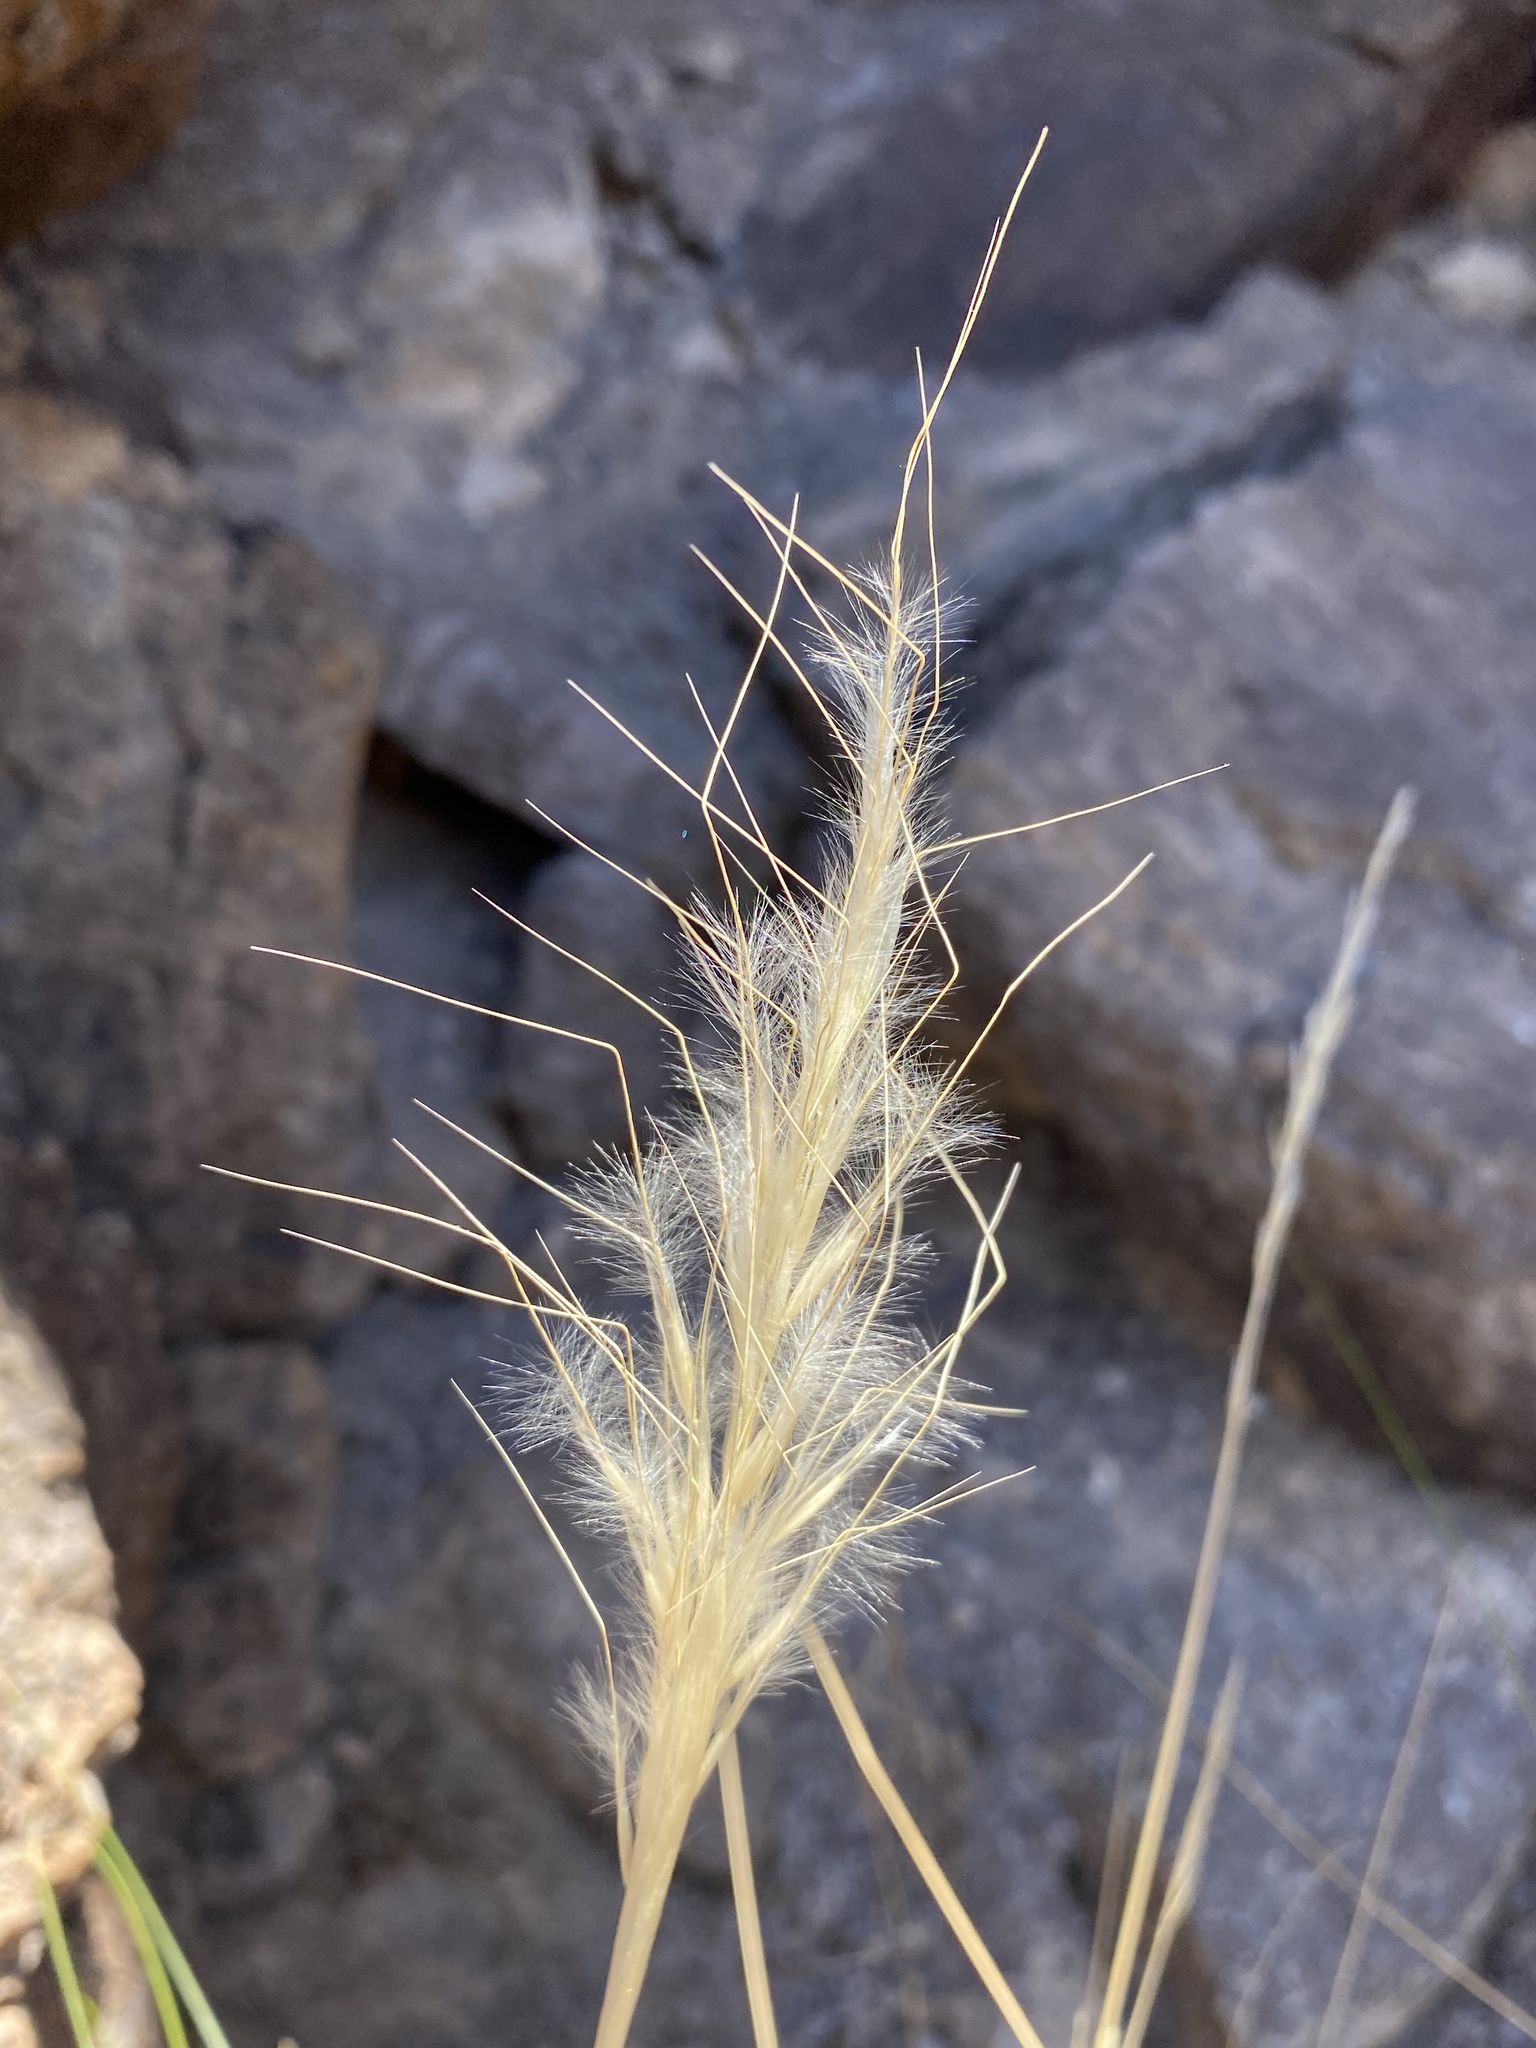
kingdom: Plantae
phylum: Tracheophyta
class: Liliopsida
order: Poales
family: Poaceae
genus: Pappostipa
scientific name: Pappostipa speciosa
